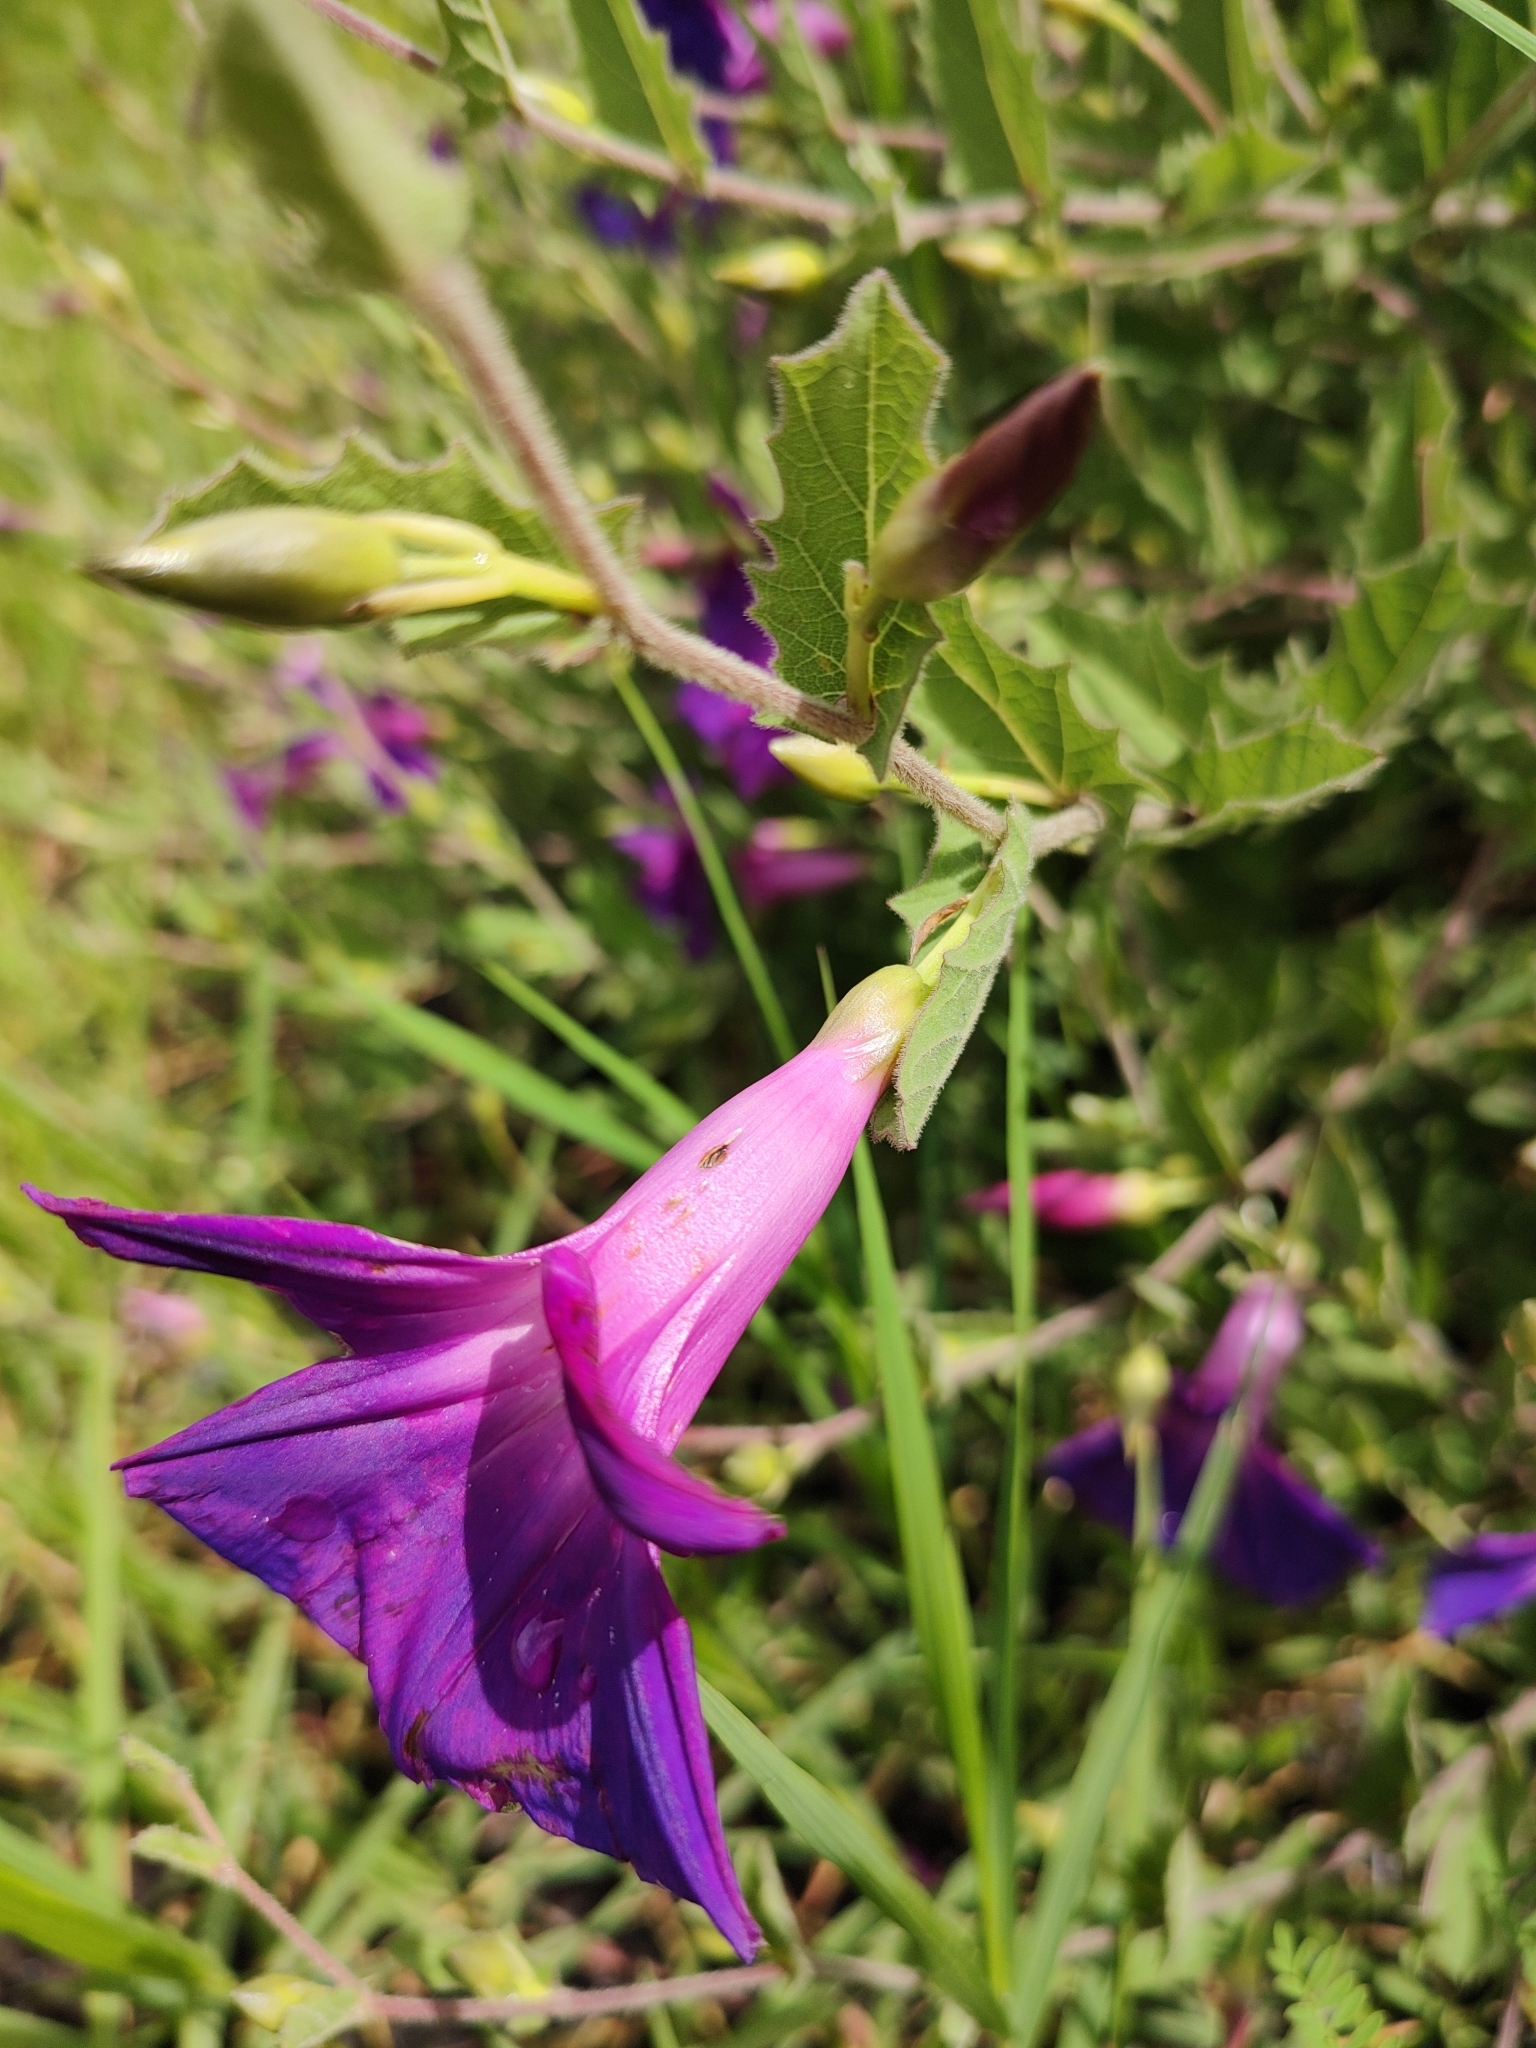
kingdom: Plantae
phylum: Tracheophyta
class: Magnoliopsida
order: Solanales
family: Convolvulaceae
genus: Ipomoea
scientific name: Ipomoea stans
